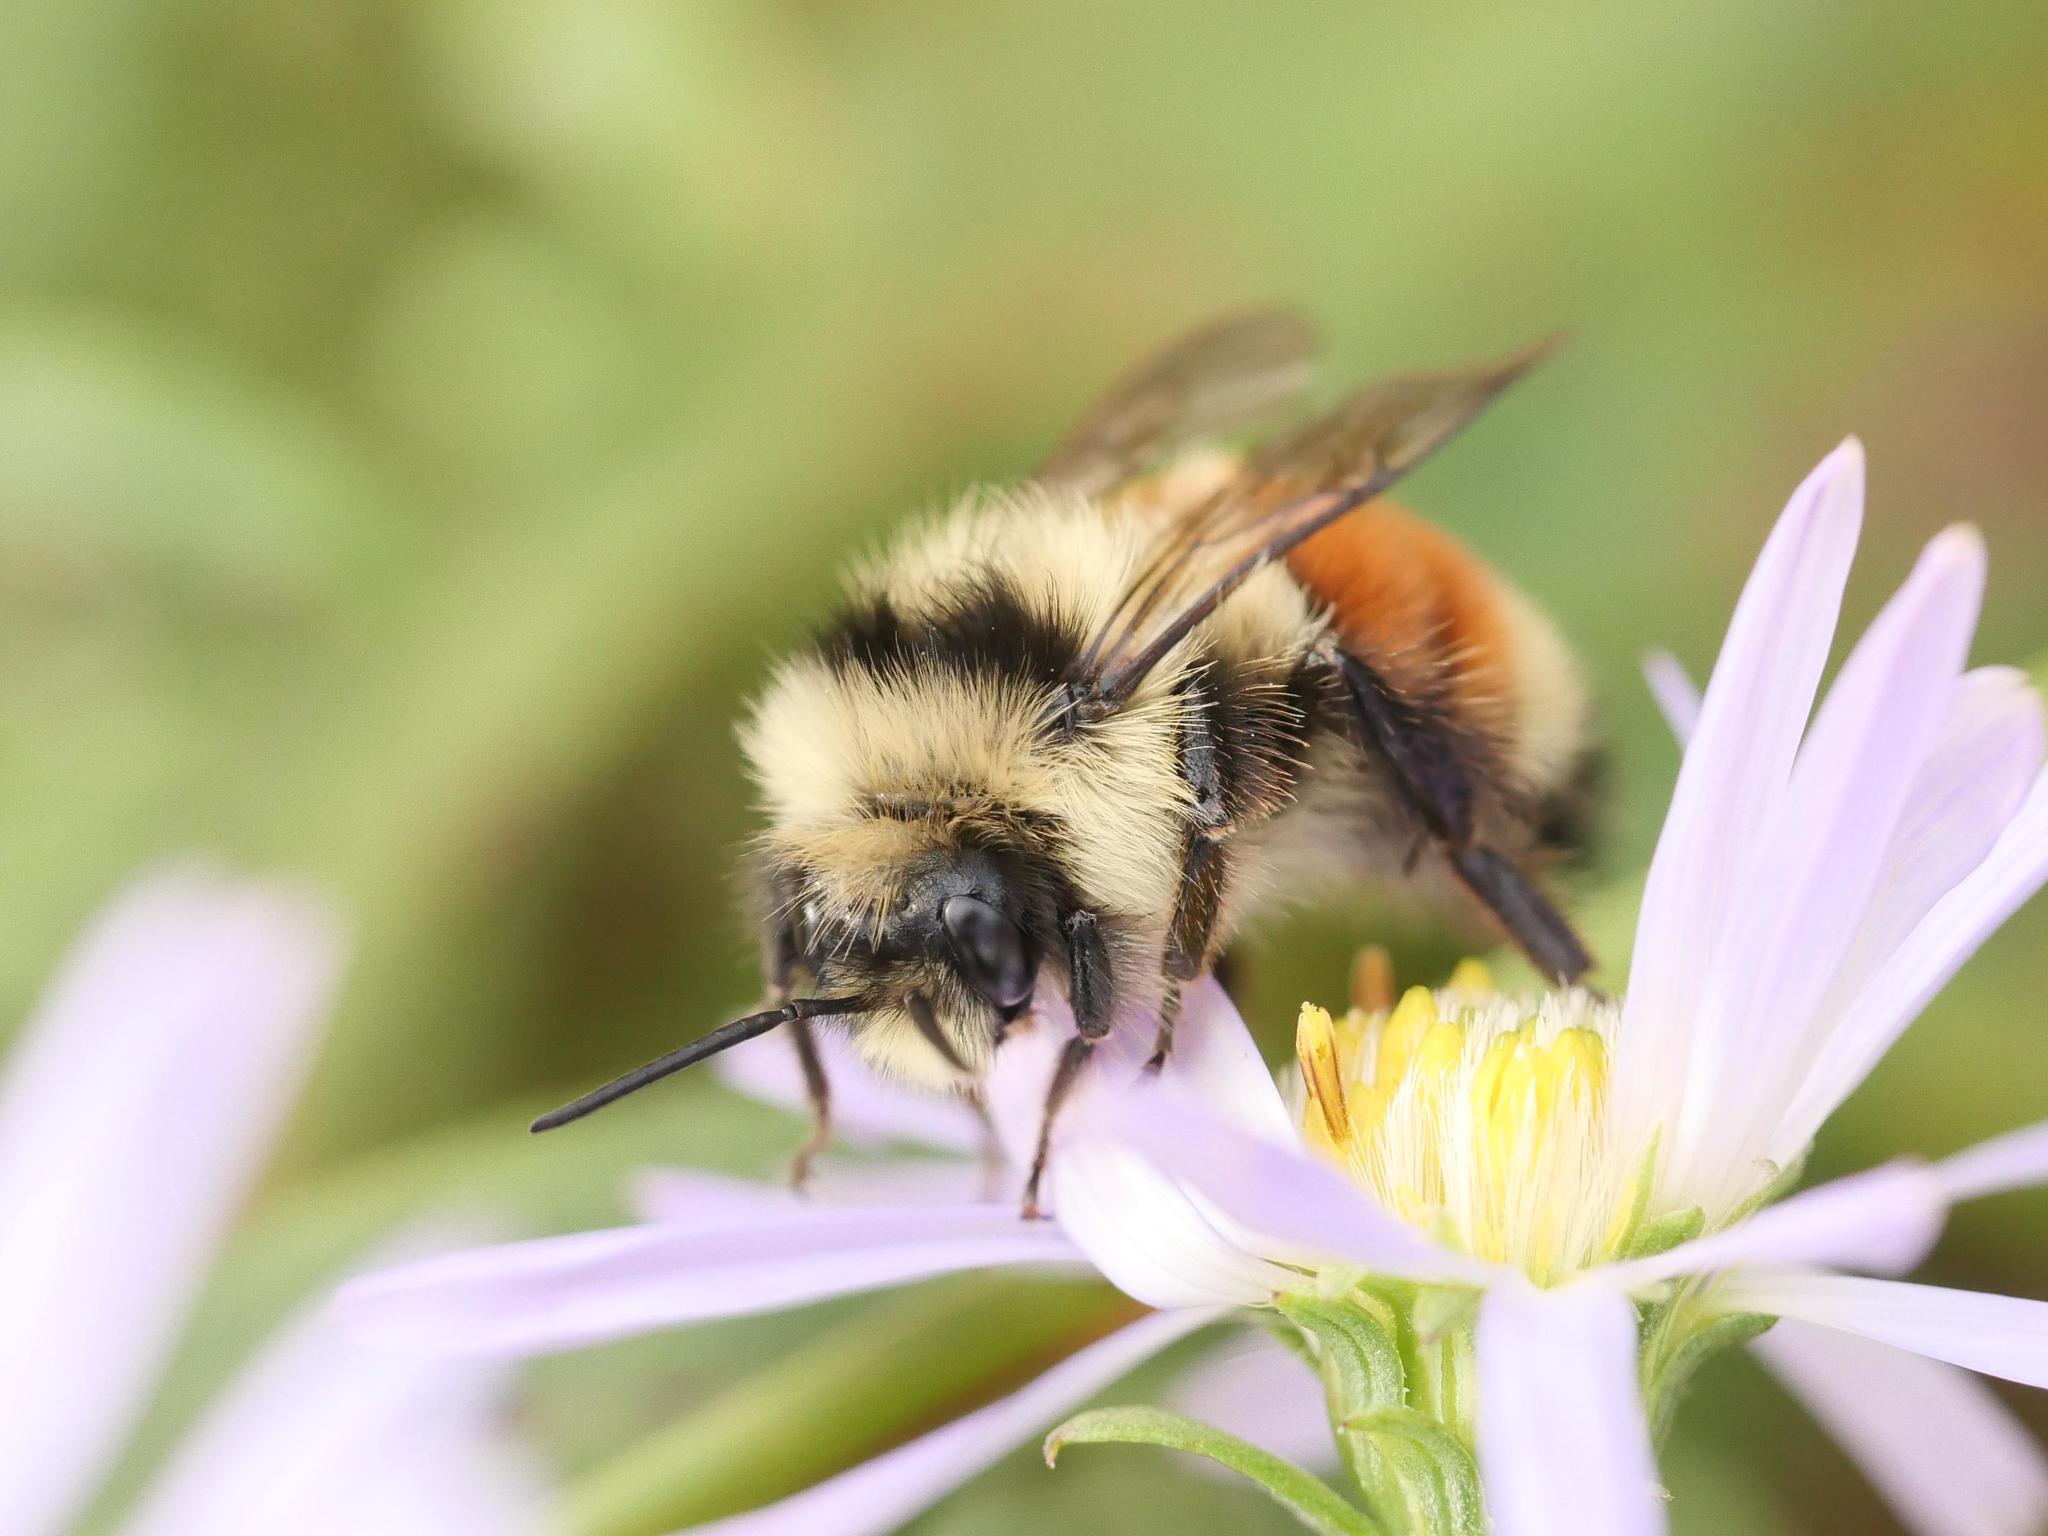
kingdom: Animalia
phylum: Arthropoda
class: Insecta
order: Hymenoptera
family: Apidae
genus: Bombus
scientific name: Bombus ternarius
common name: Tri-colored bumble bee
